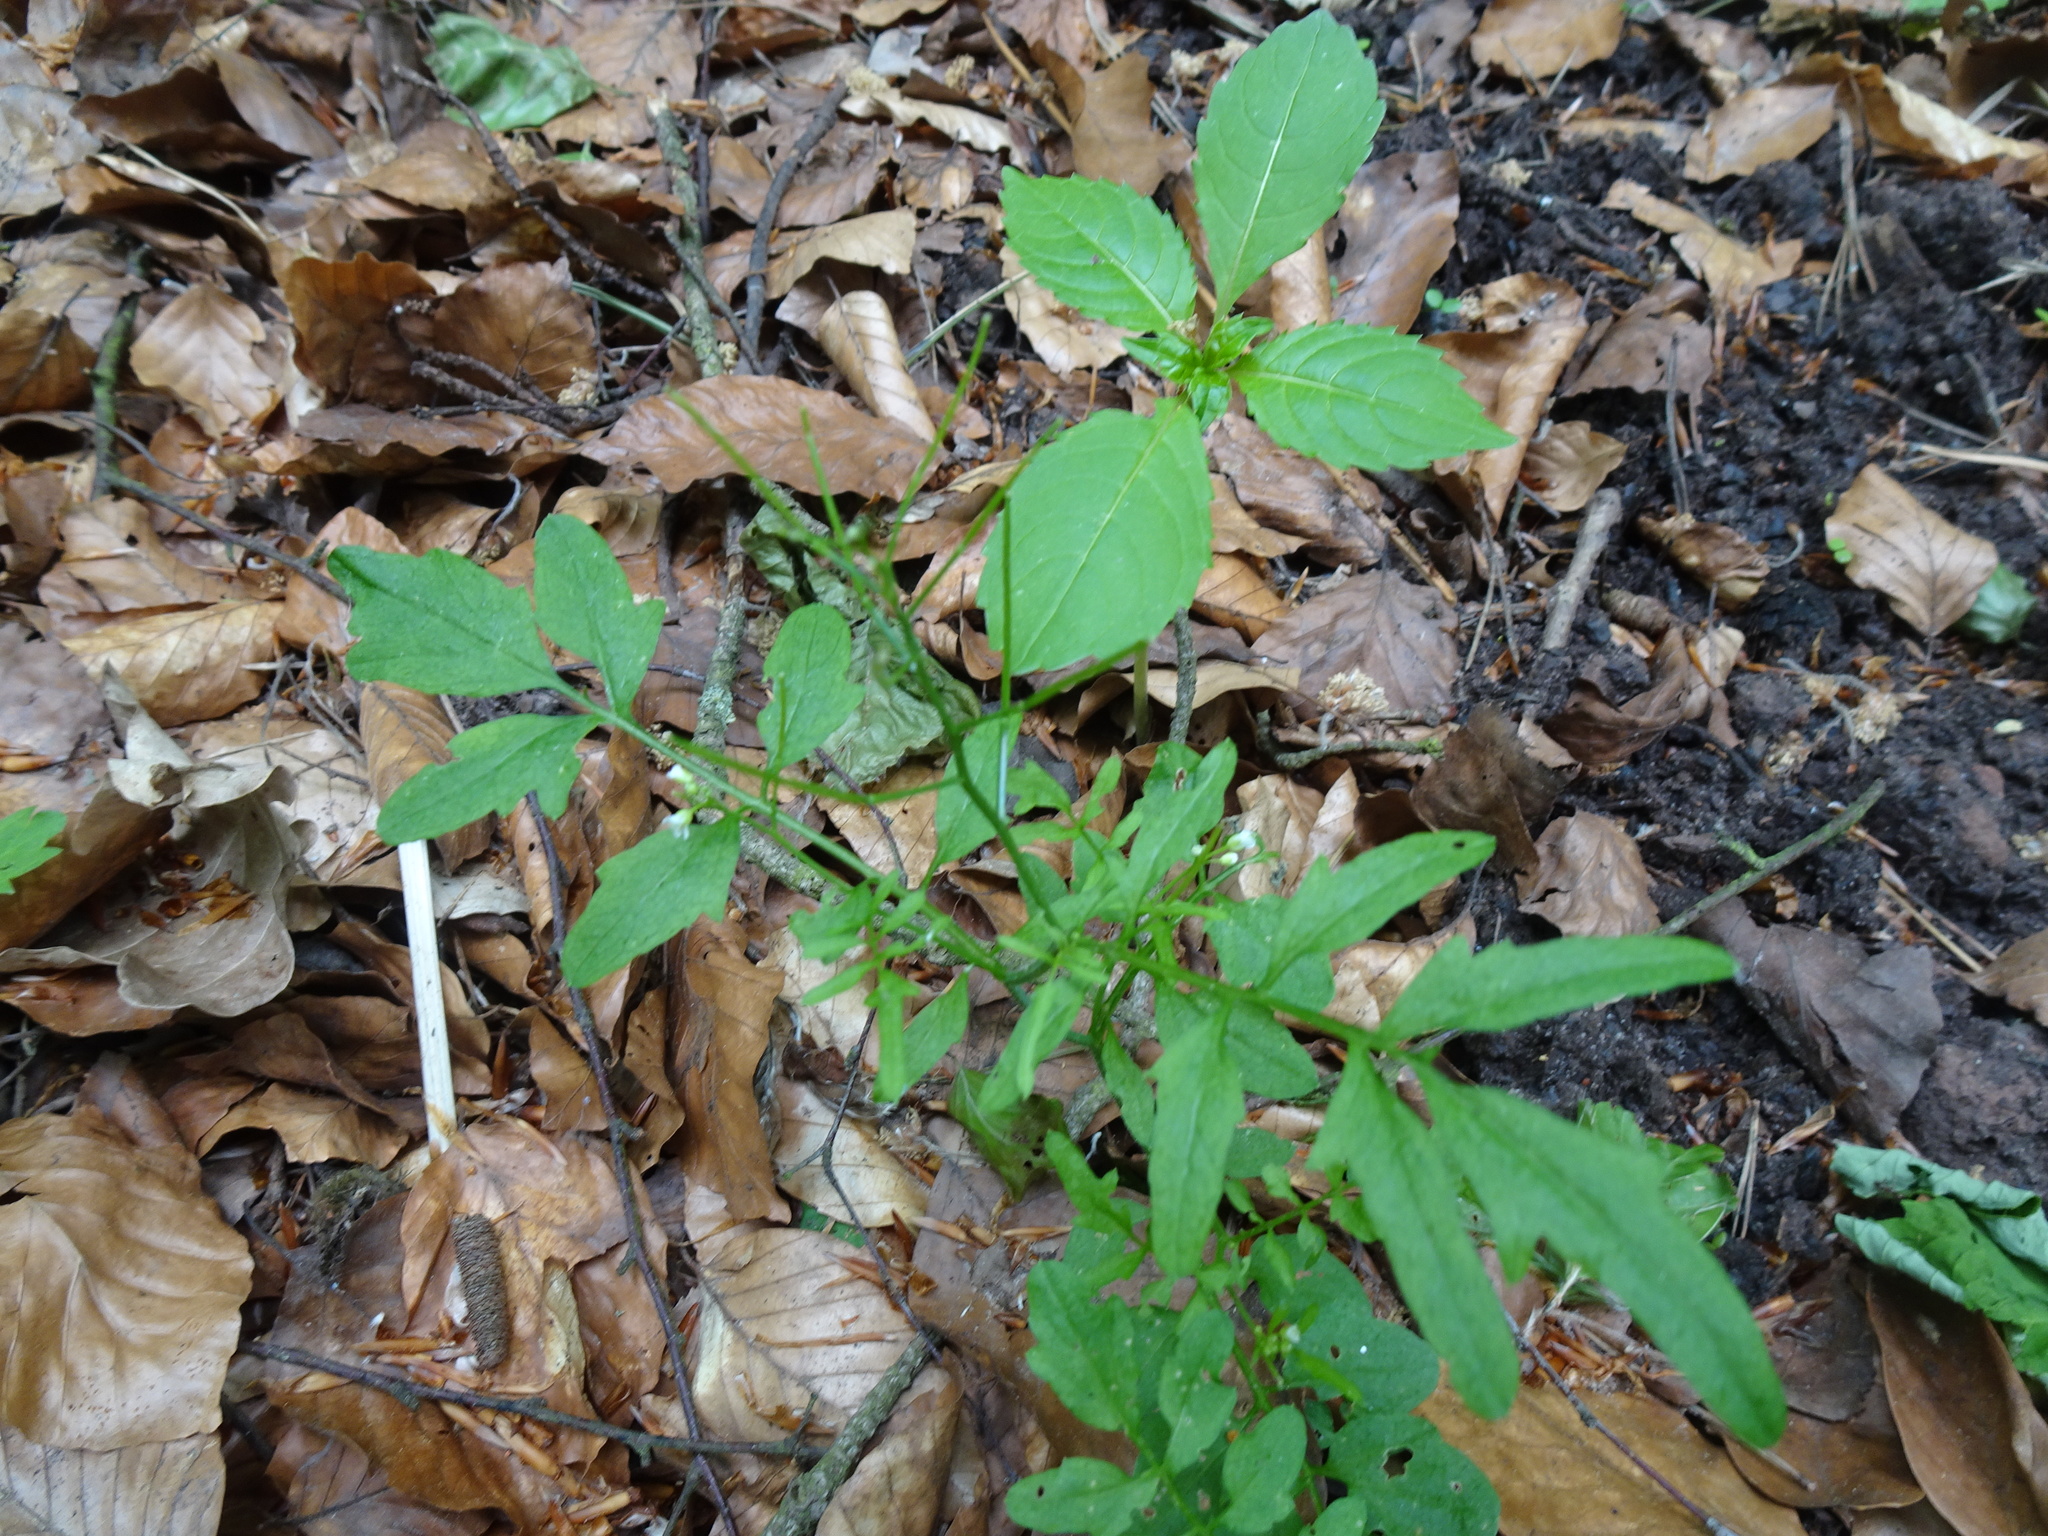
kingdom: Plantae
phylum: Tracheophyta
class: Magnoliopsida
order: Brassicales
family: Brassicaceae
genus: Cardamine
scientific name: Cardamine flexuosa
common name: Woodland bittercress
